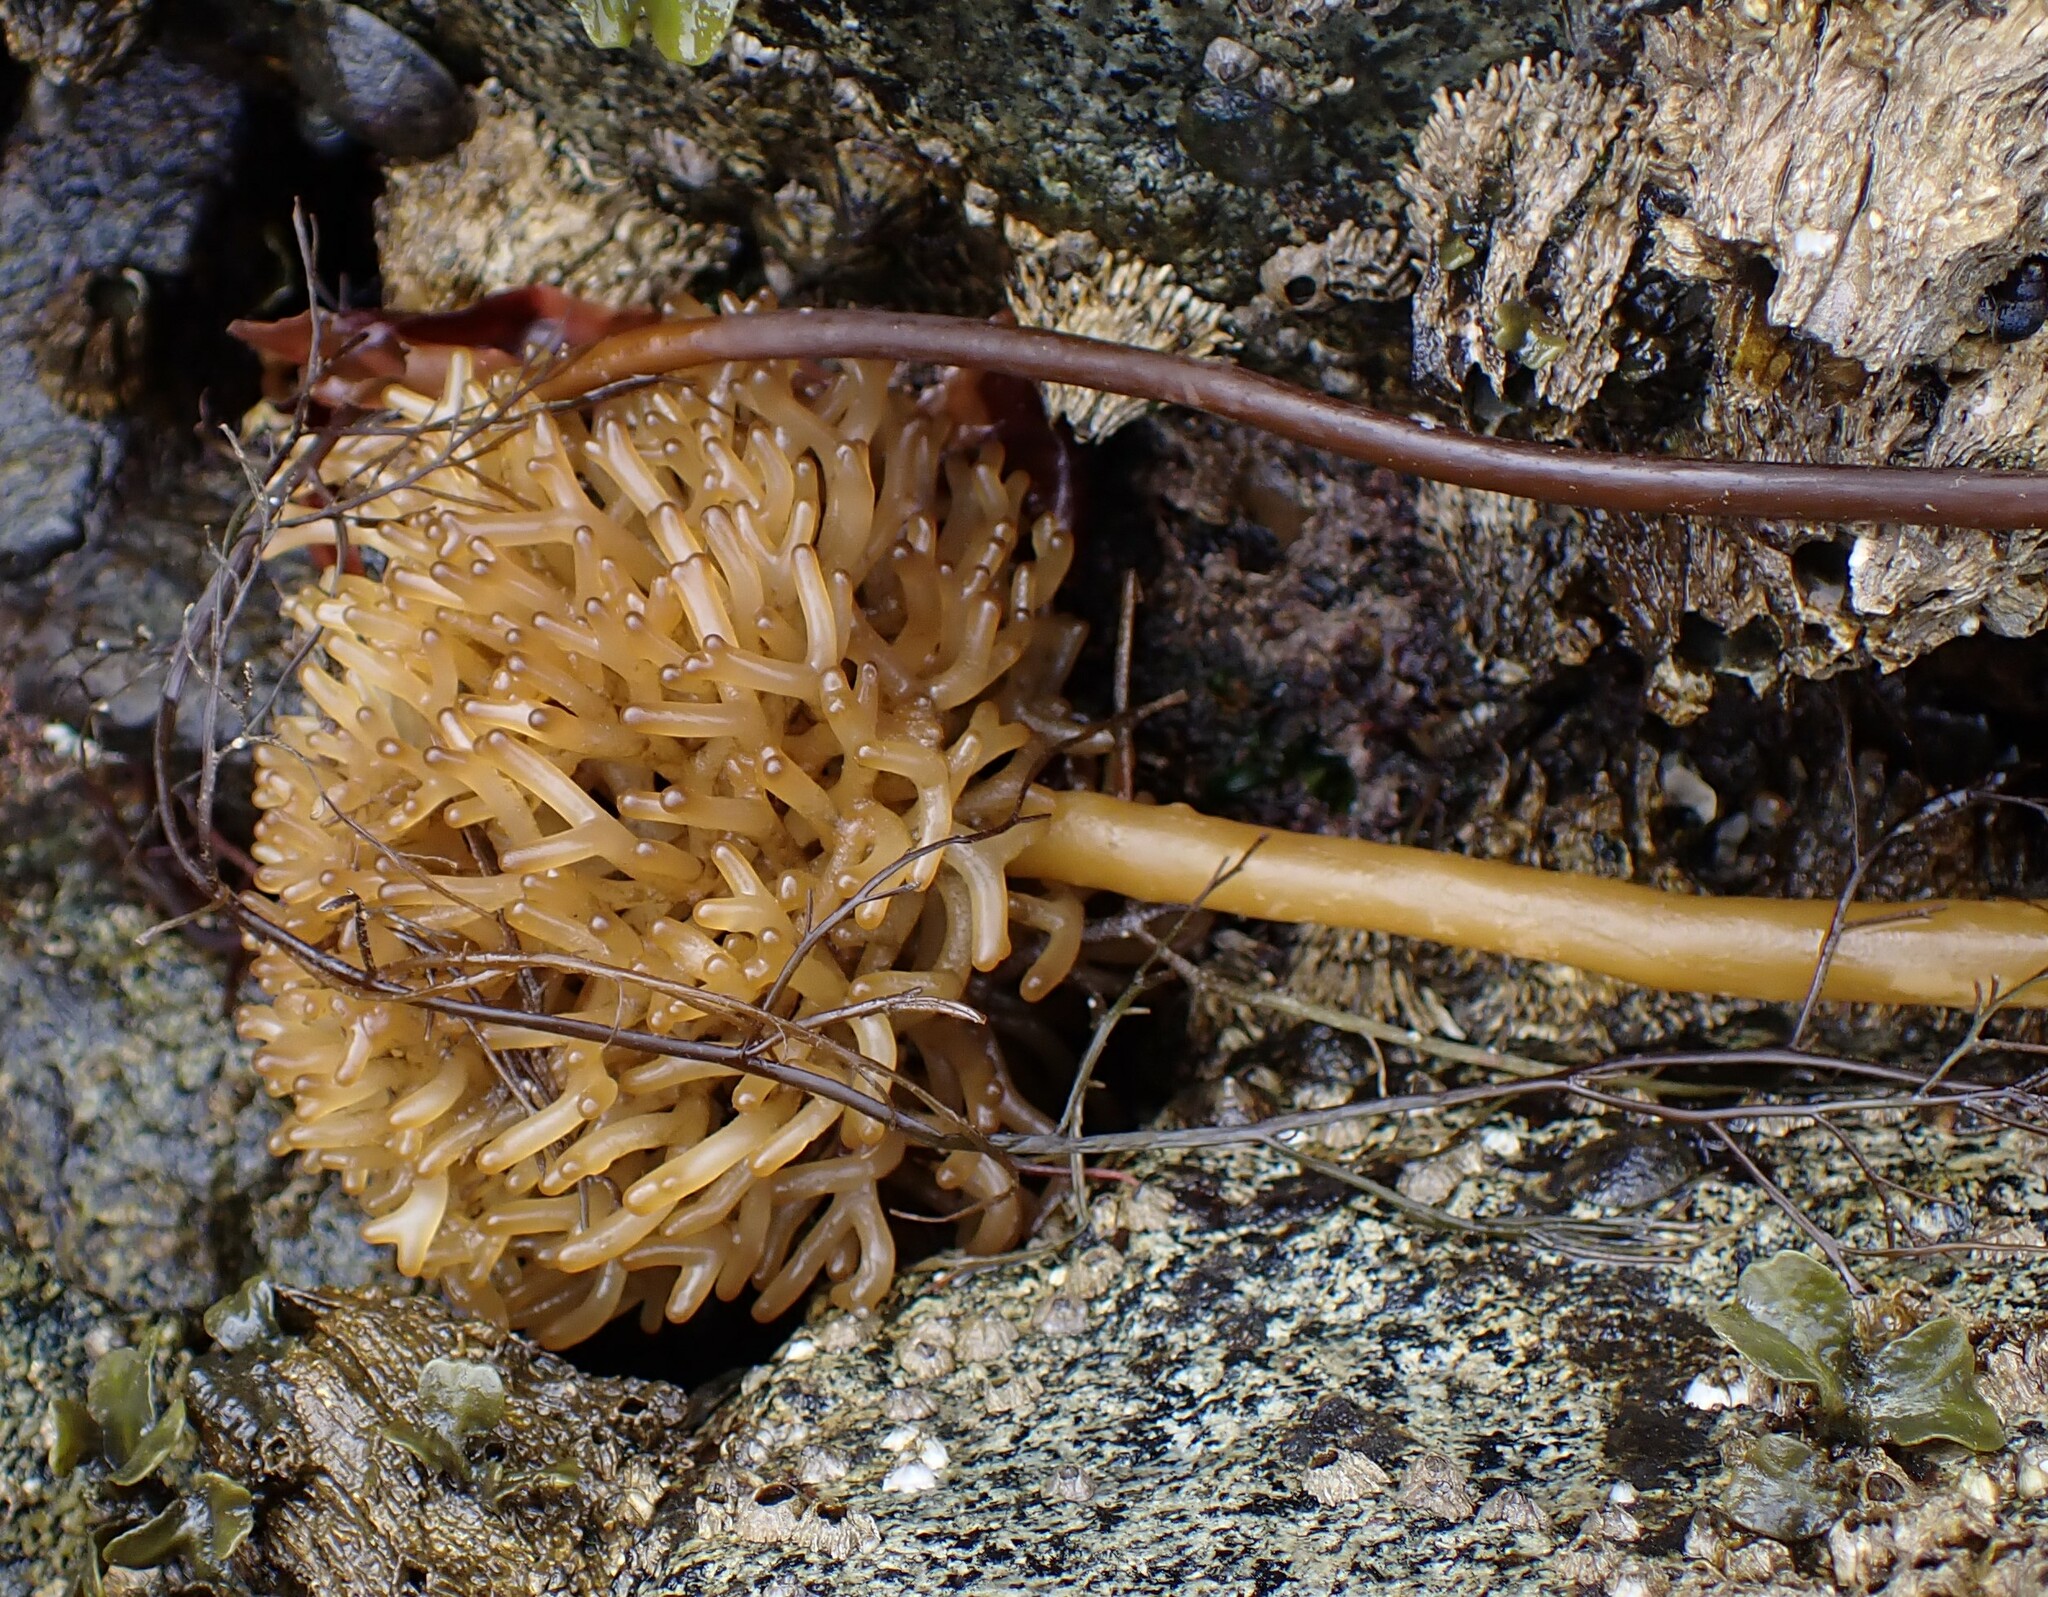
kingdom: Chromista
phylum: Ochrophyta
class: Phaeophyceae
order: Laminariales
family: Laminariaceae
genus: Nereocystis
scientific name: Nereocystis luetkeana
